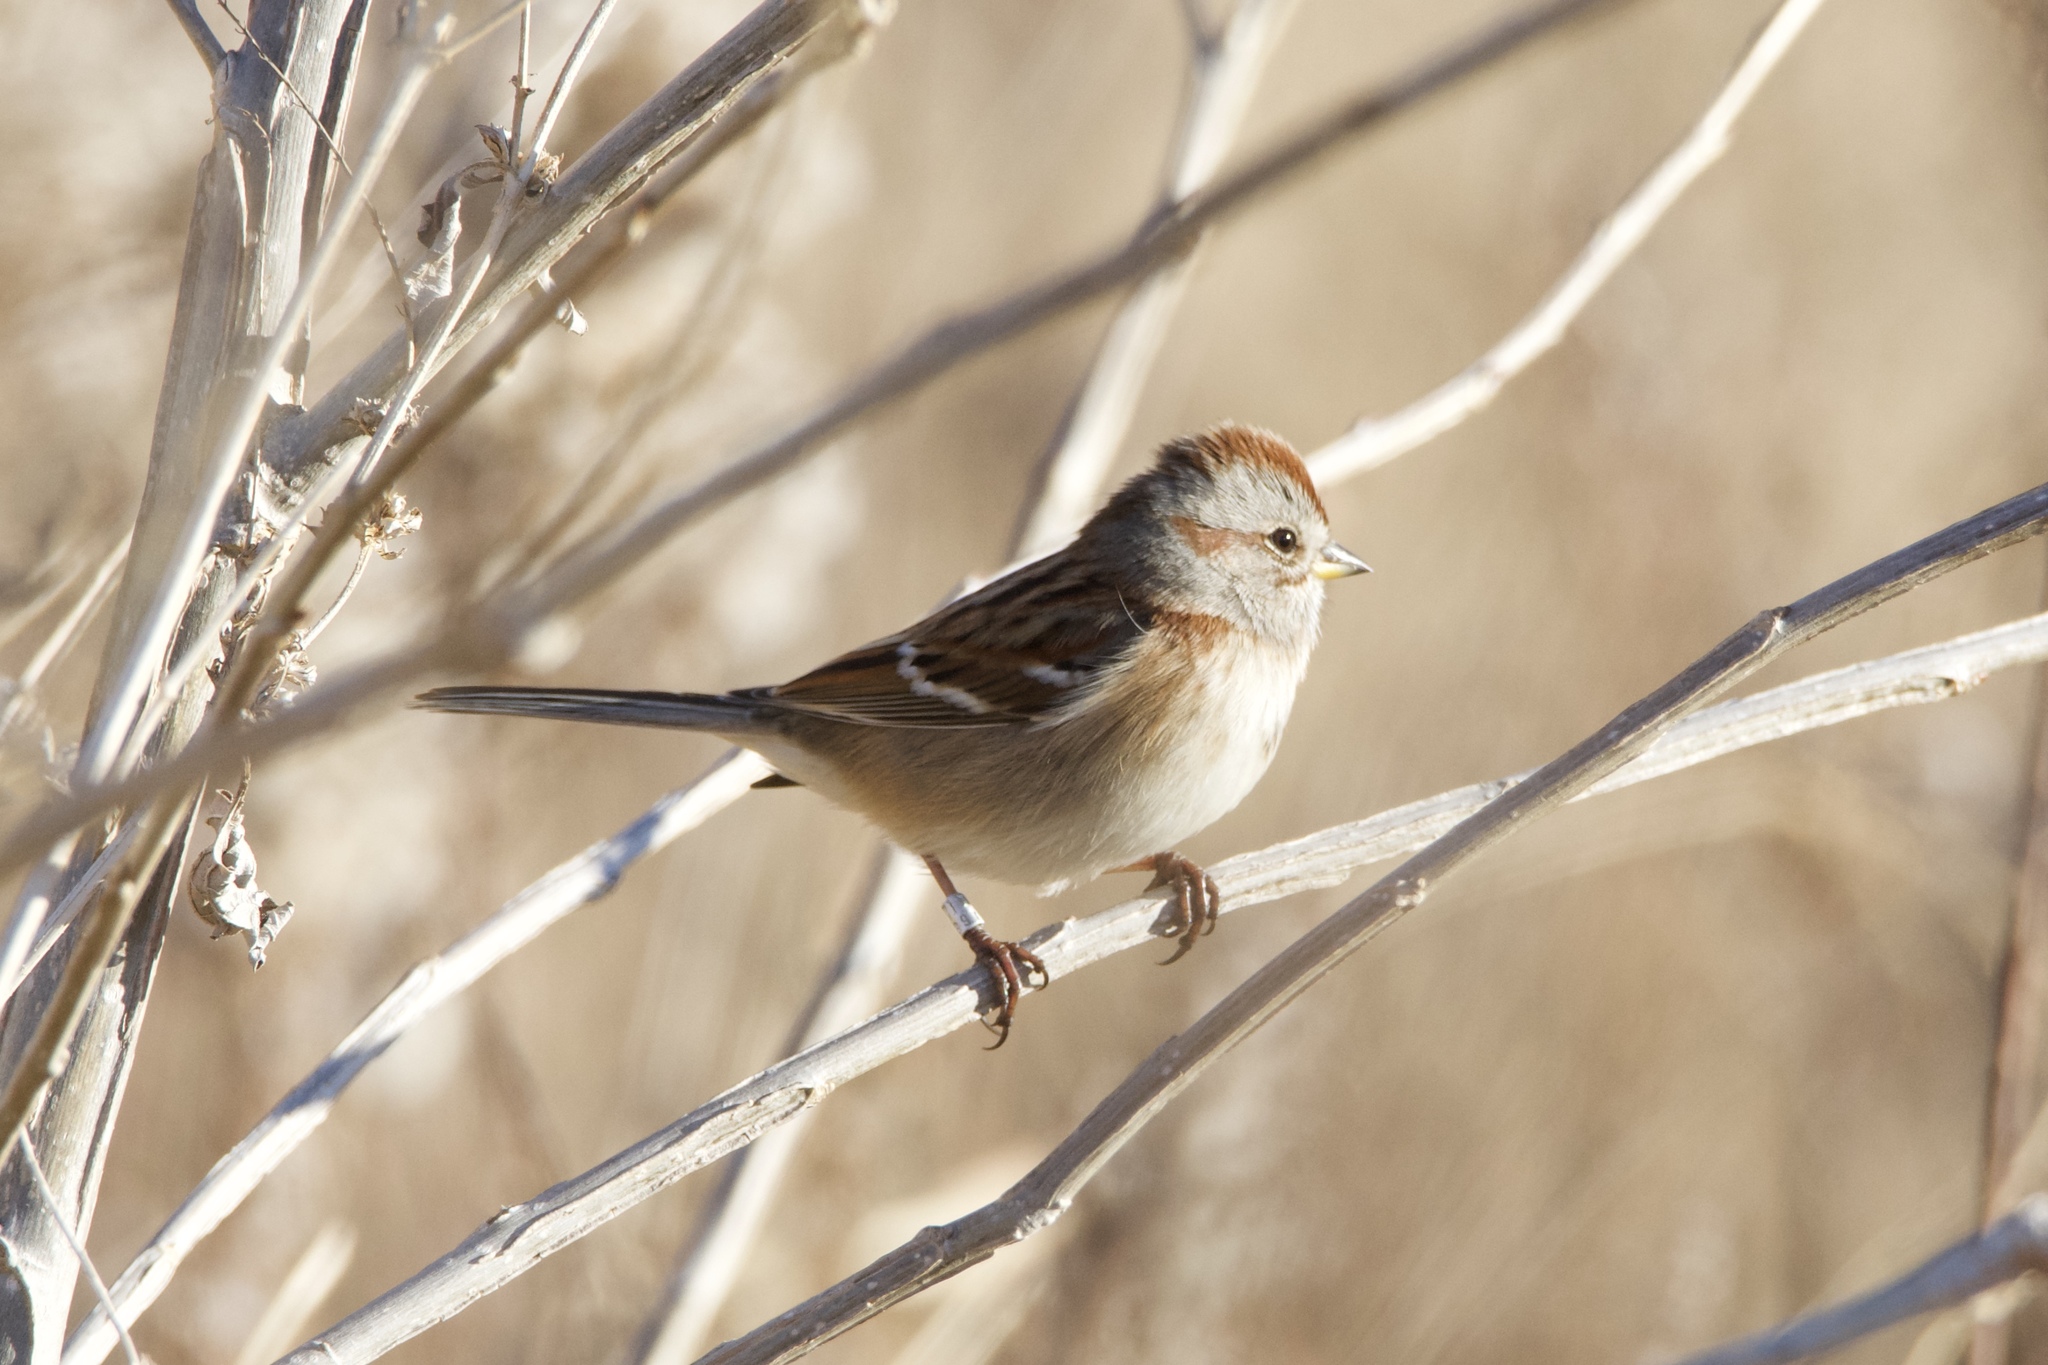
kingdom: Animalia
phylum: Chordata
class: Aves
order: Passeriformes
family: Passerellidae
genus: Spizelloides
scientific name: Spizelloides arborea
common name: American tree sparrow
